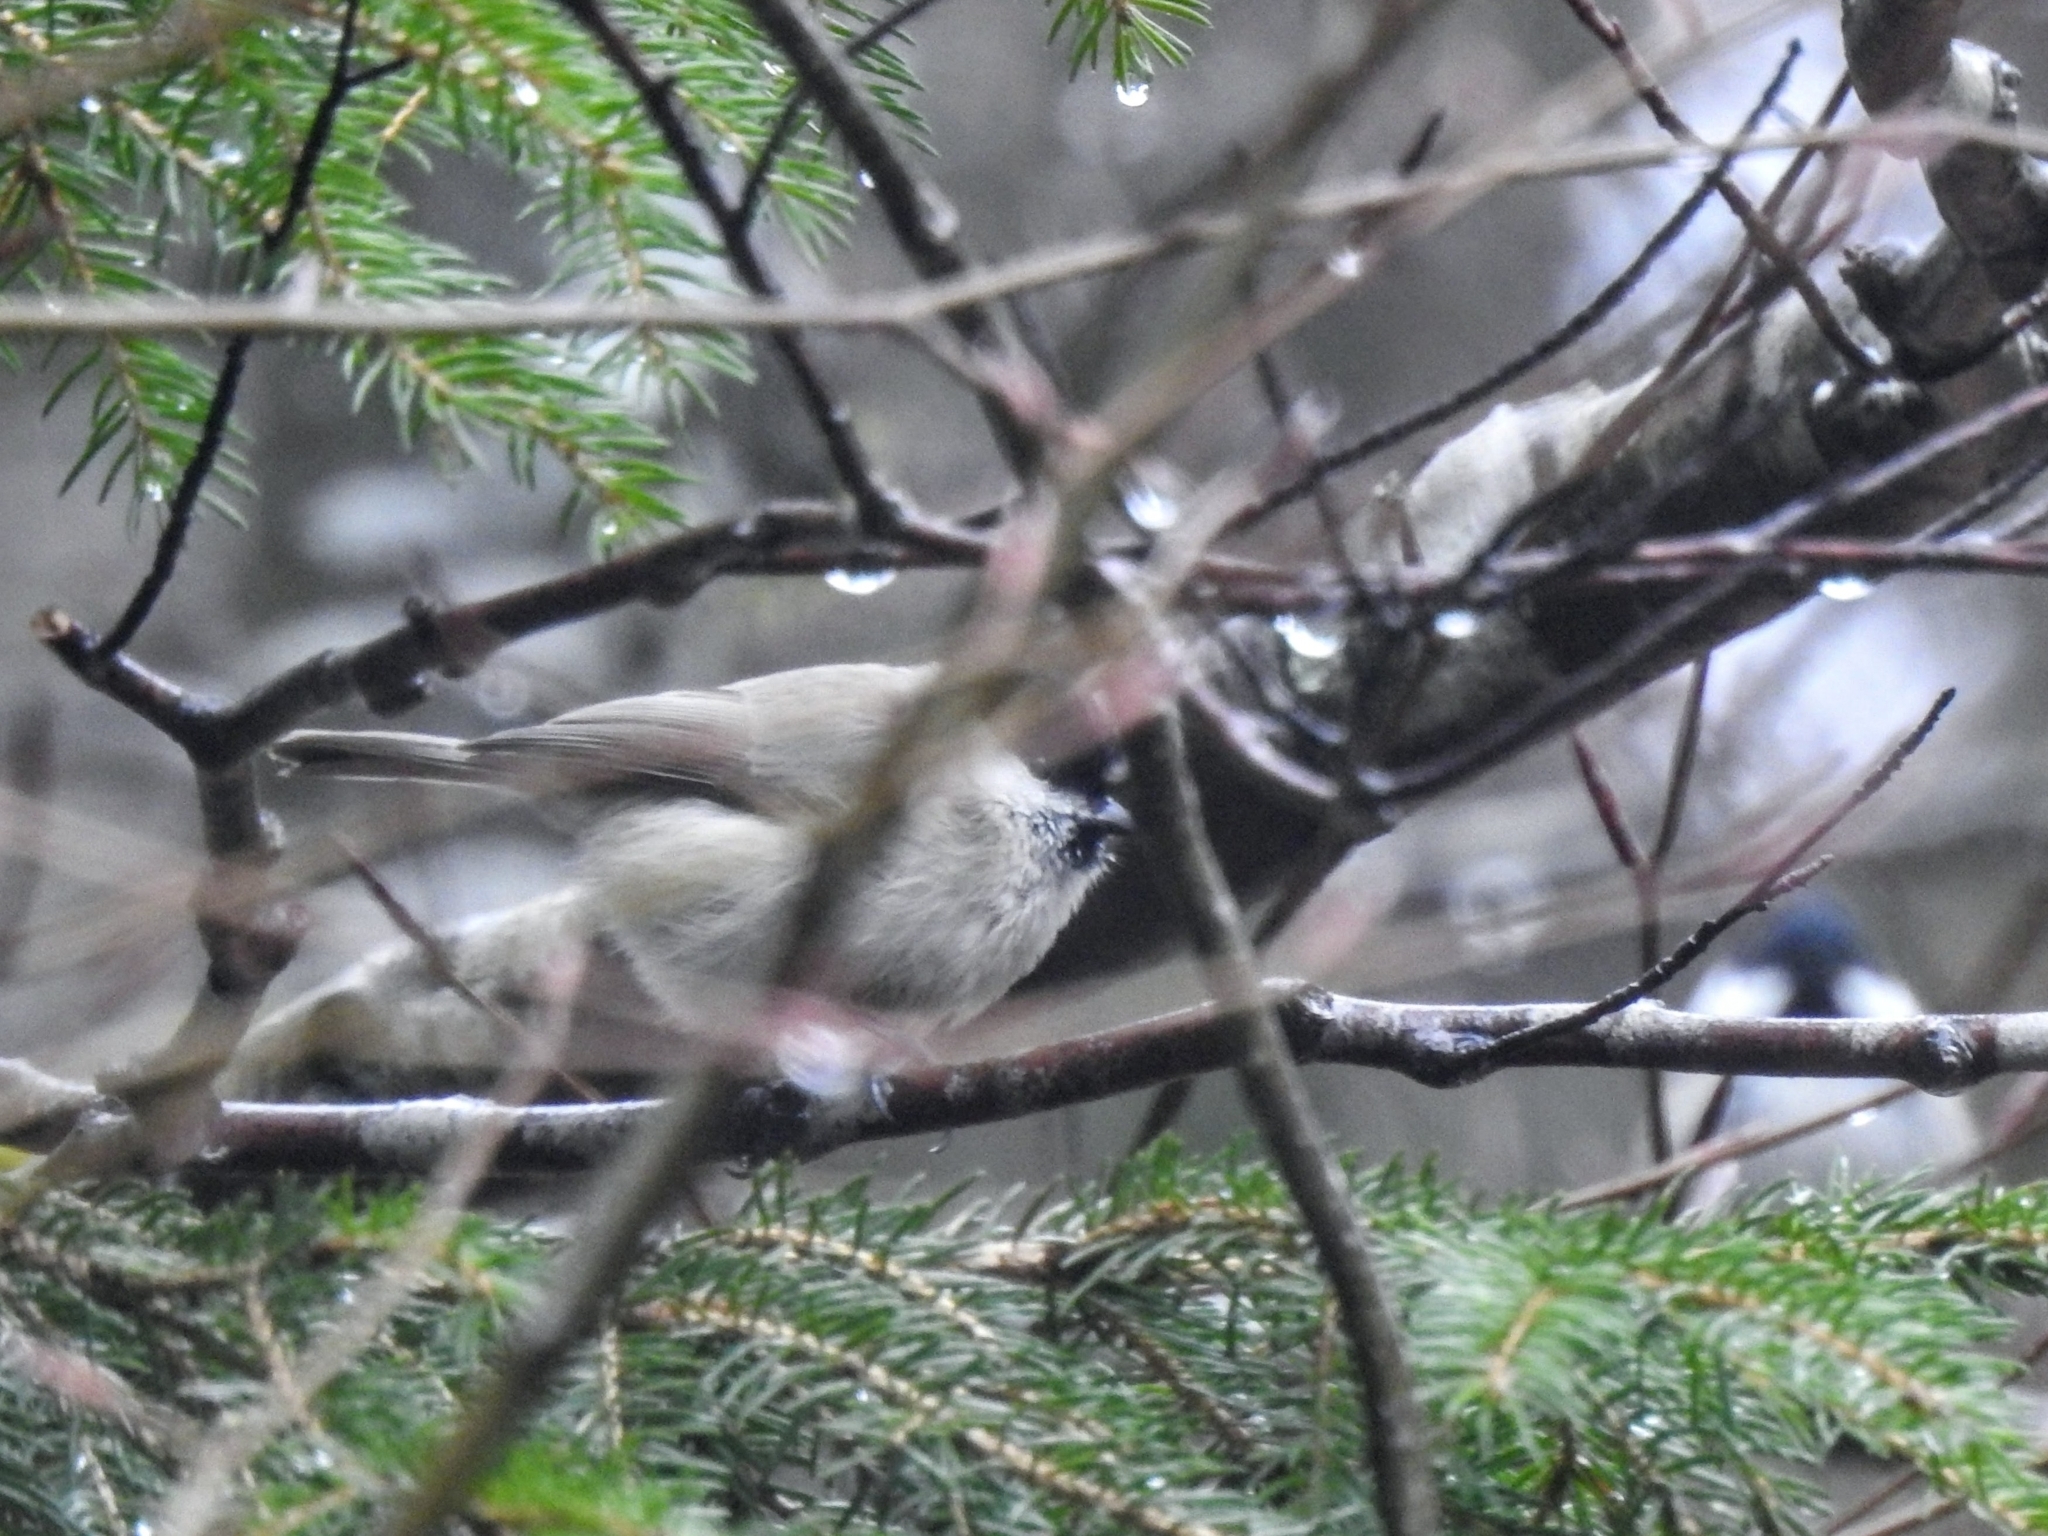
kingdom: Animalia
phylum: Chordata
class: Aves
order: Passeriformes
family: Paridae
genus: Poecile
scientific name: Poecile palustris
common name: Marsh tit
